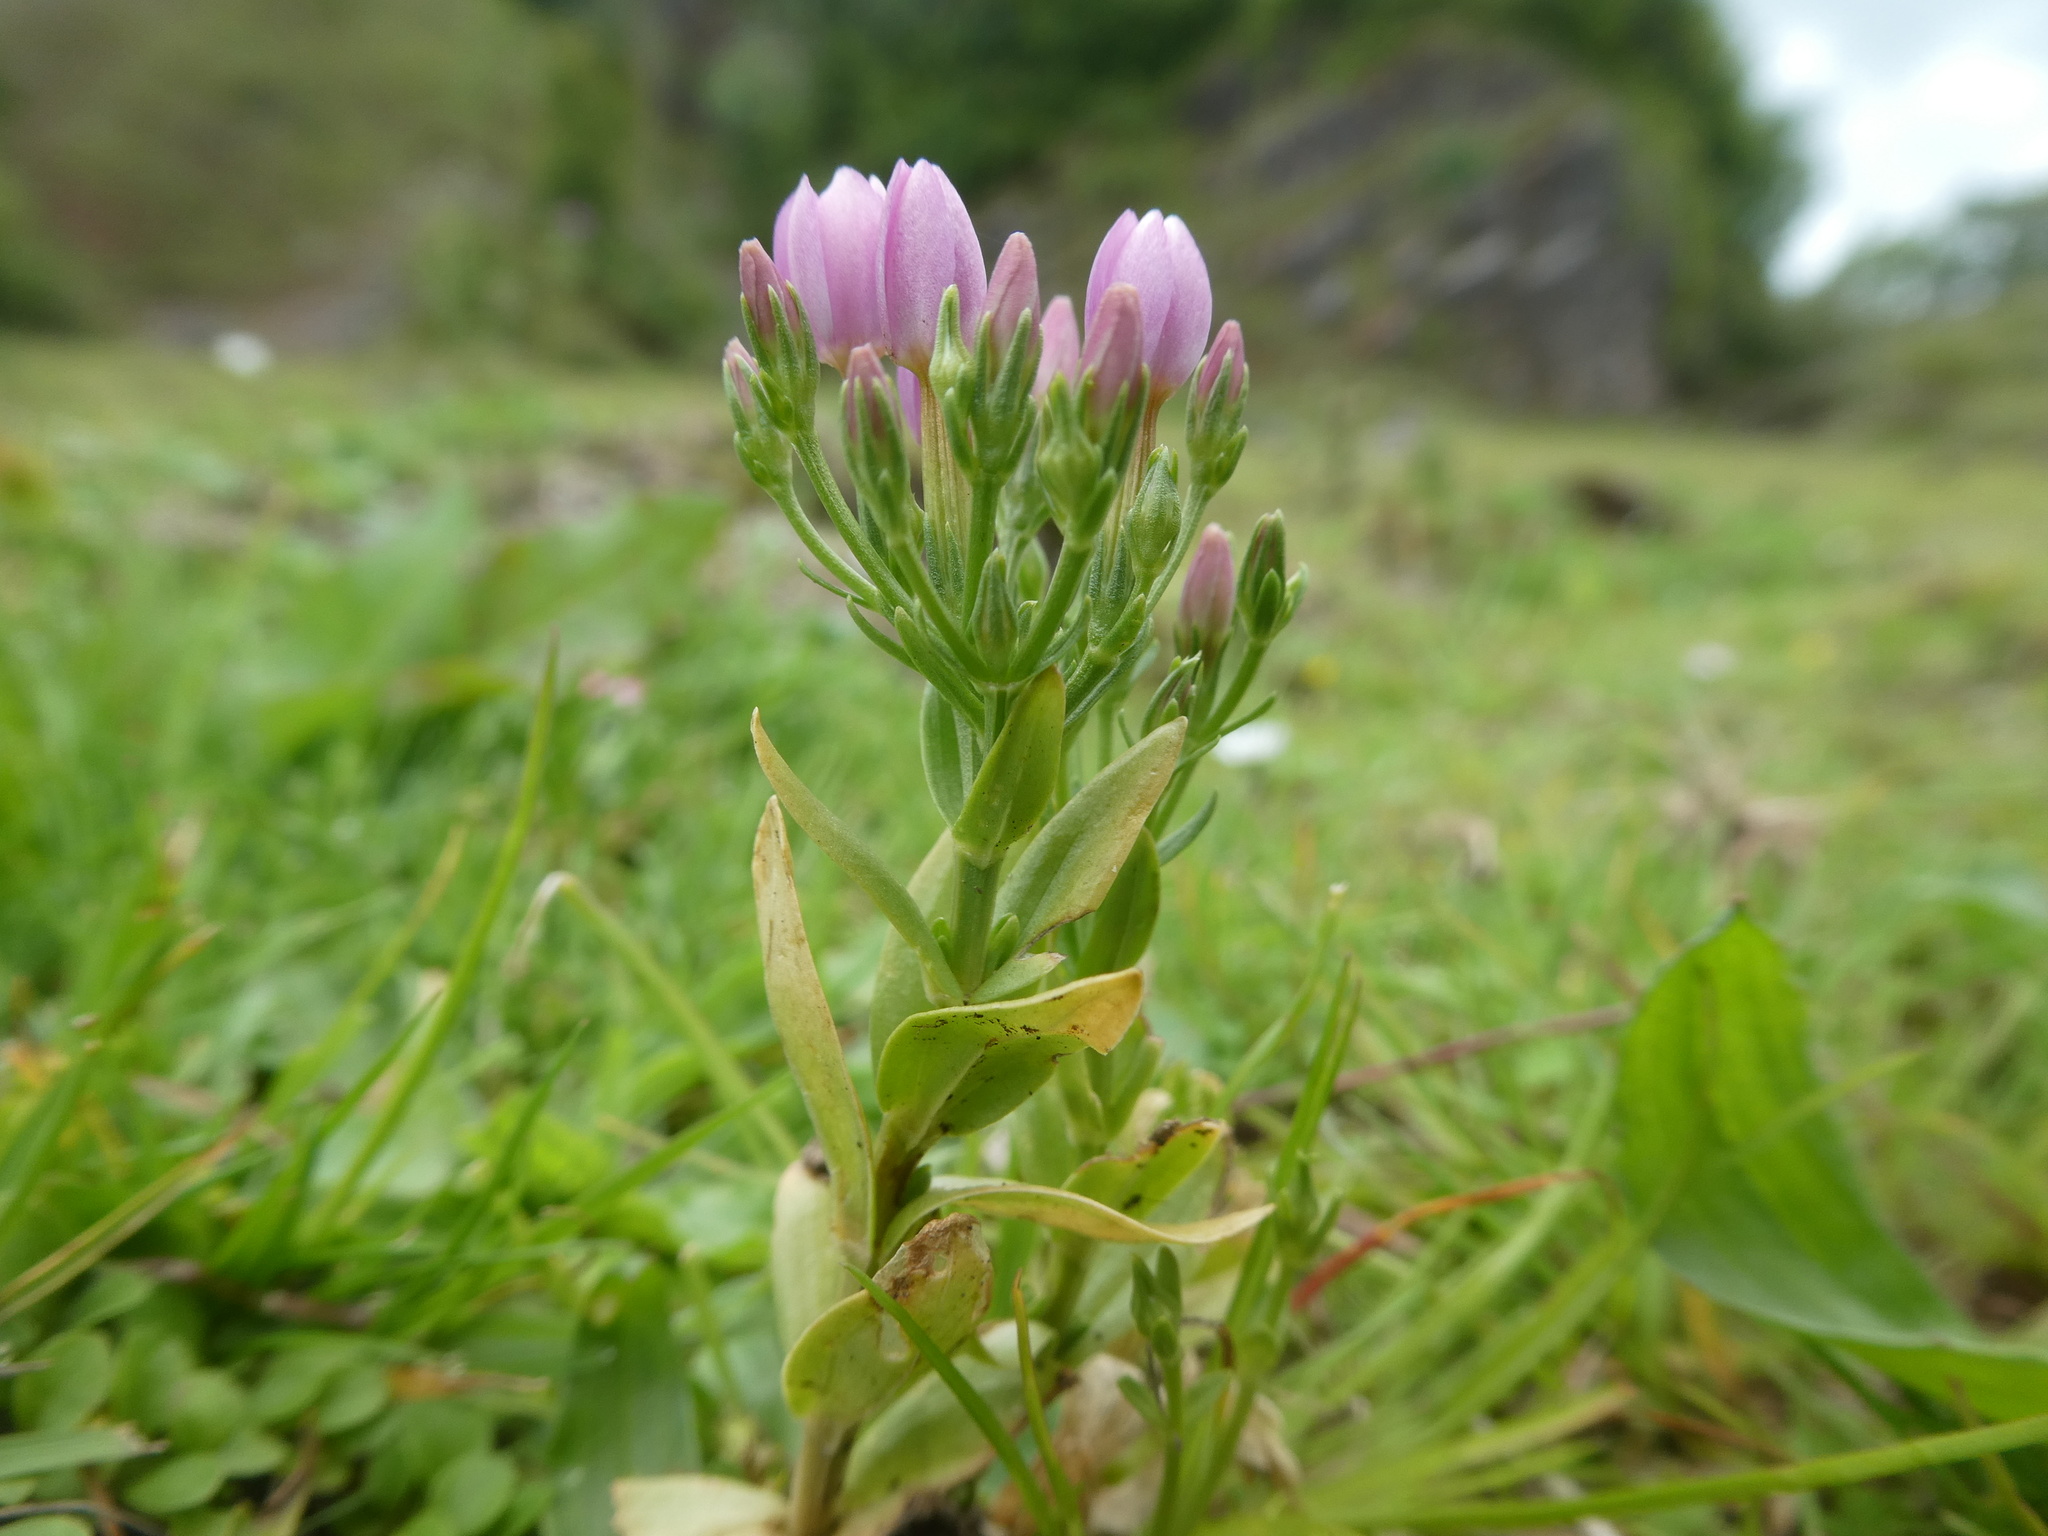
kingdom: Plantae
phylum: Tracheophyta
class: Magnoliopsida
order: Gentianales
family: Gentianaceae
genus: Centaurium
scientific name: Centaurium erythraea
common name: Common centaury
